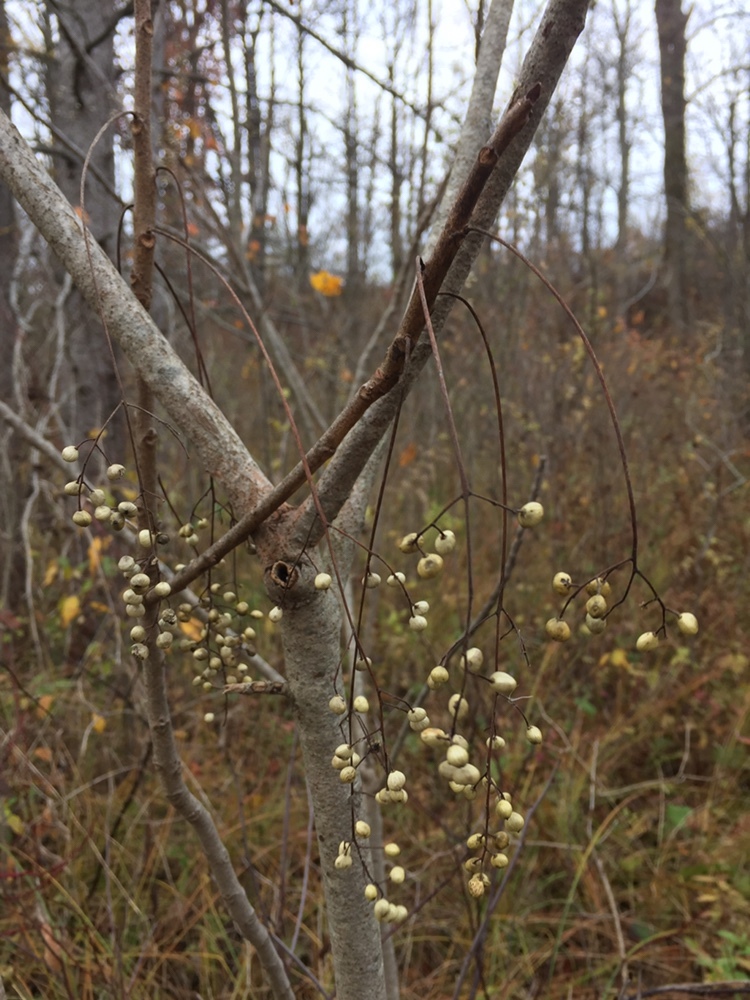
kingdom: Plantae
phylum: Tracheophyta
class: Magnoliopsida
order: Sapindales
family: Anacardiaceae
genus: Toxicodendron
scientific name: Toxicodendron vernix
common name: Poison sumac
